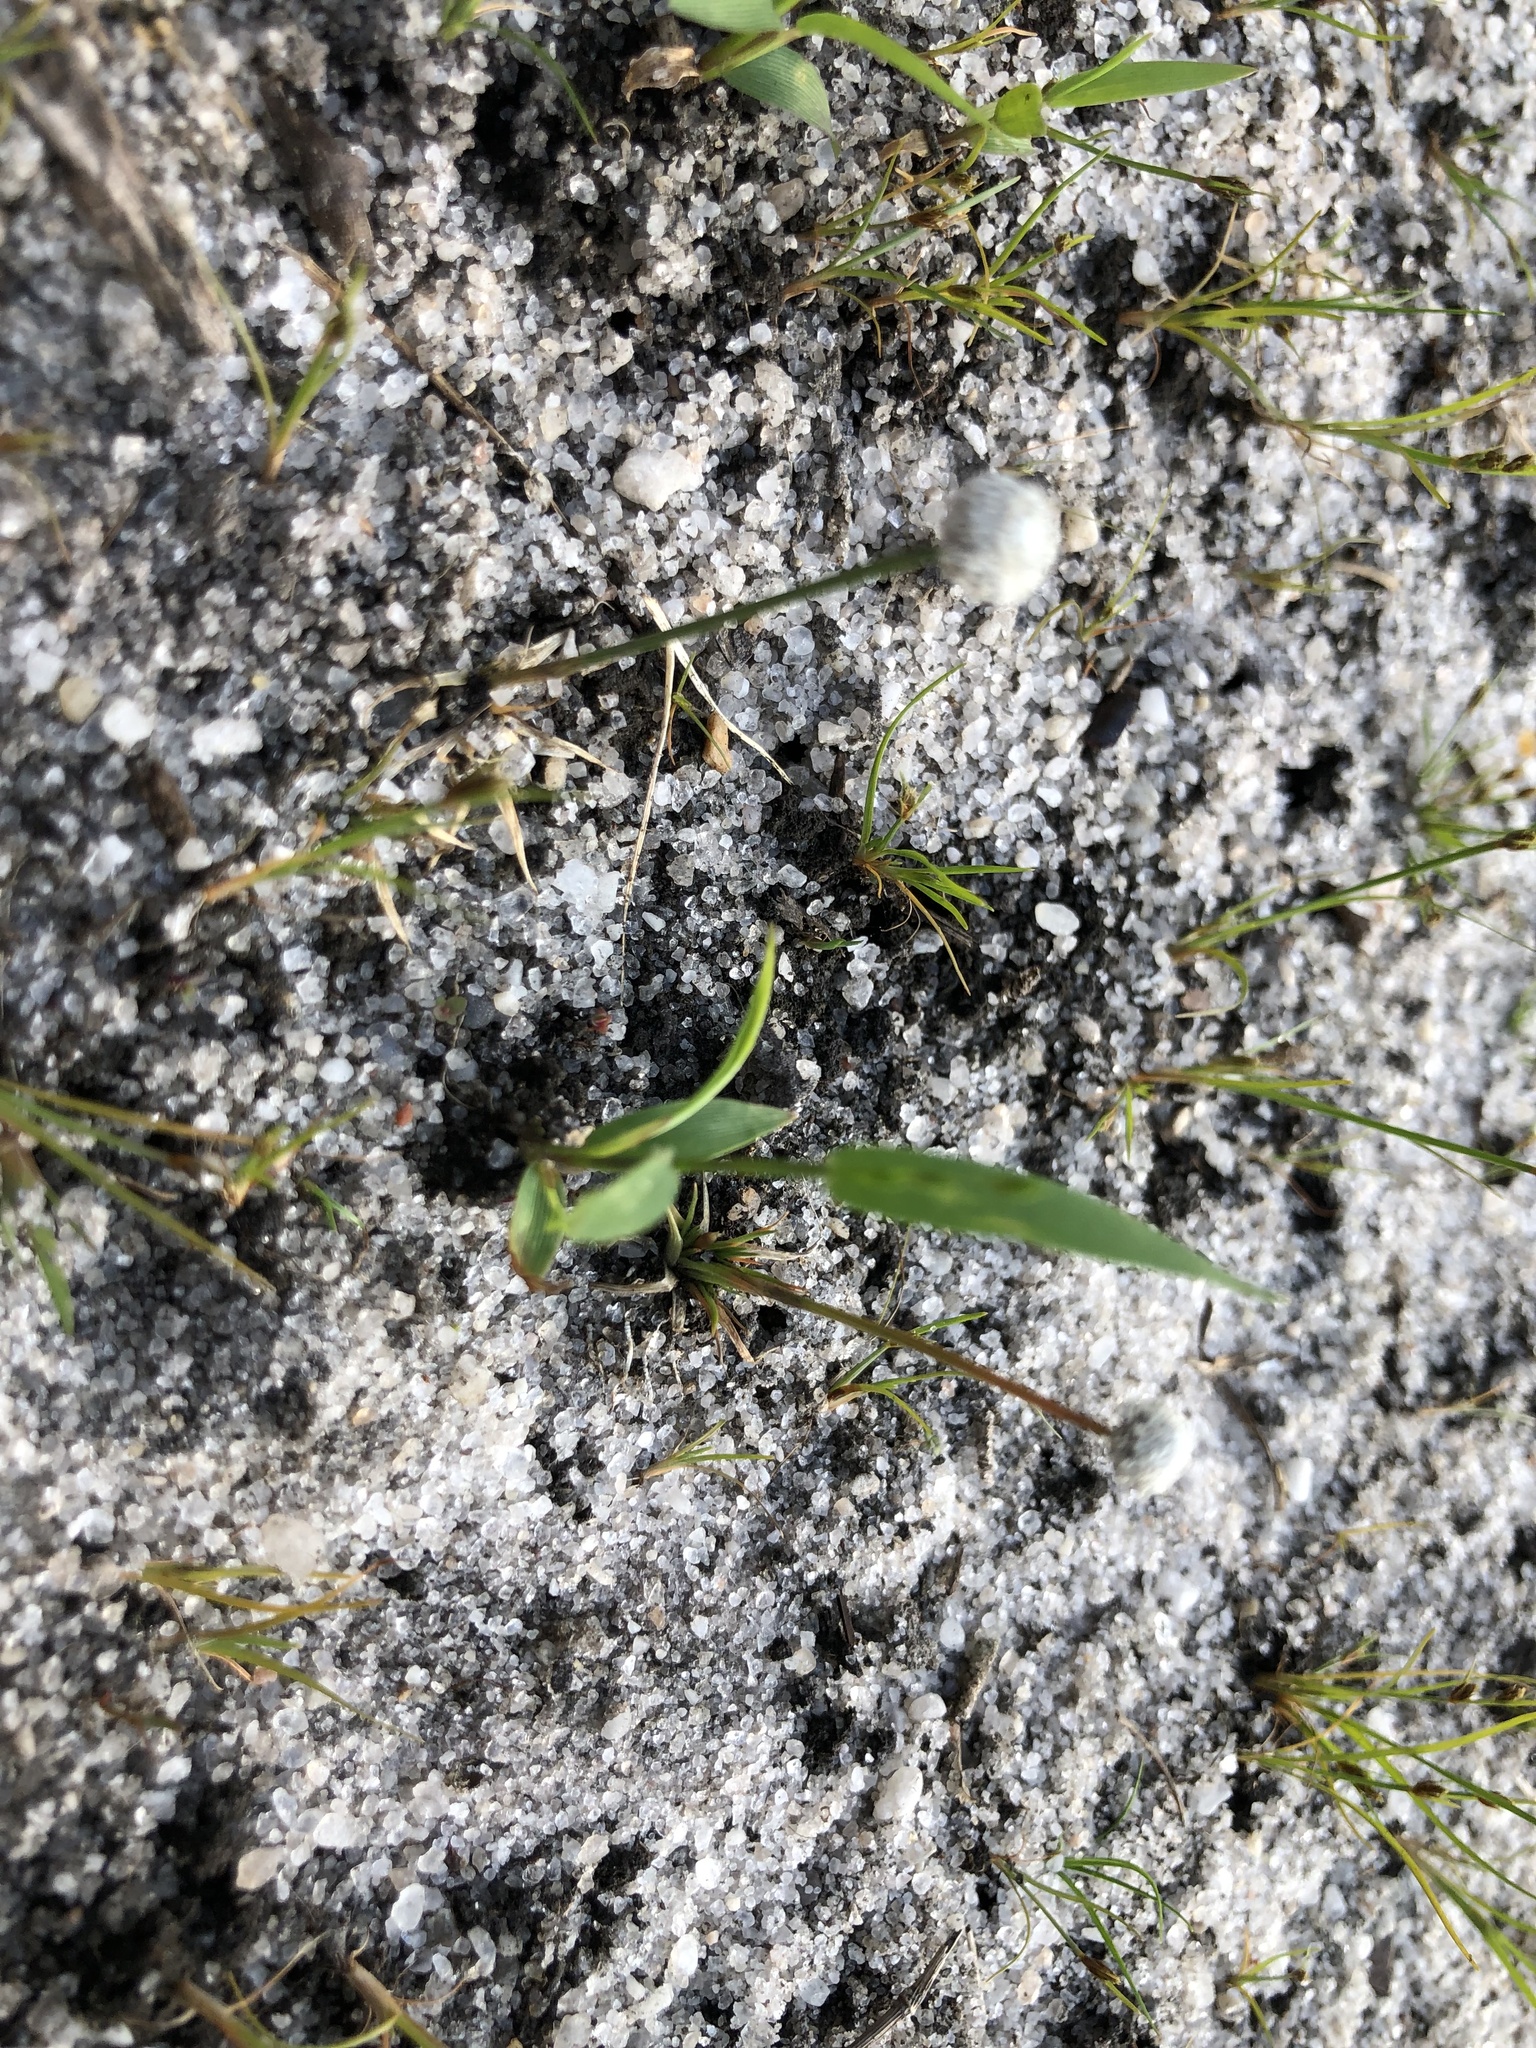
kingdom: Plantae
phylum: Tracheophyta
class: Liliopsida
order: Poales
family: Eriocaulaceae
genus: Eriocaulon
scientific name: Eriocaulon aquaticum
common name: Pipewort
